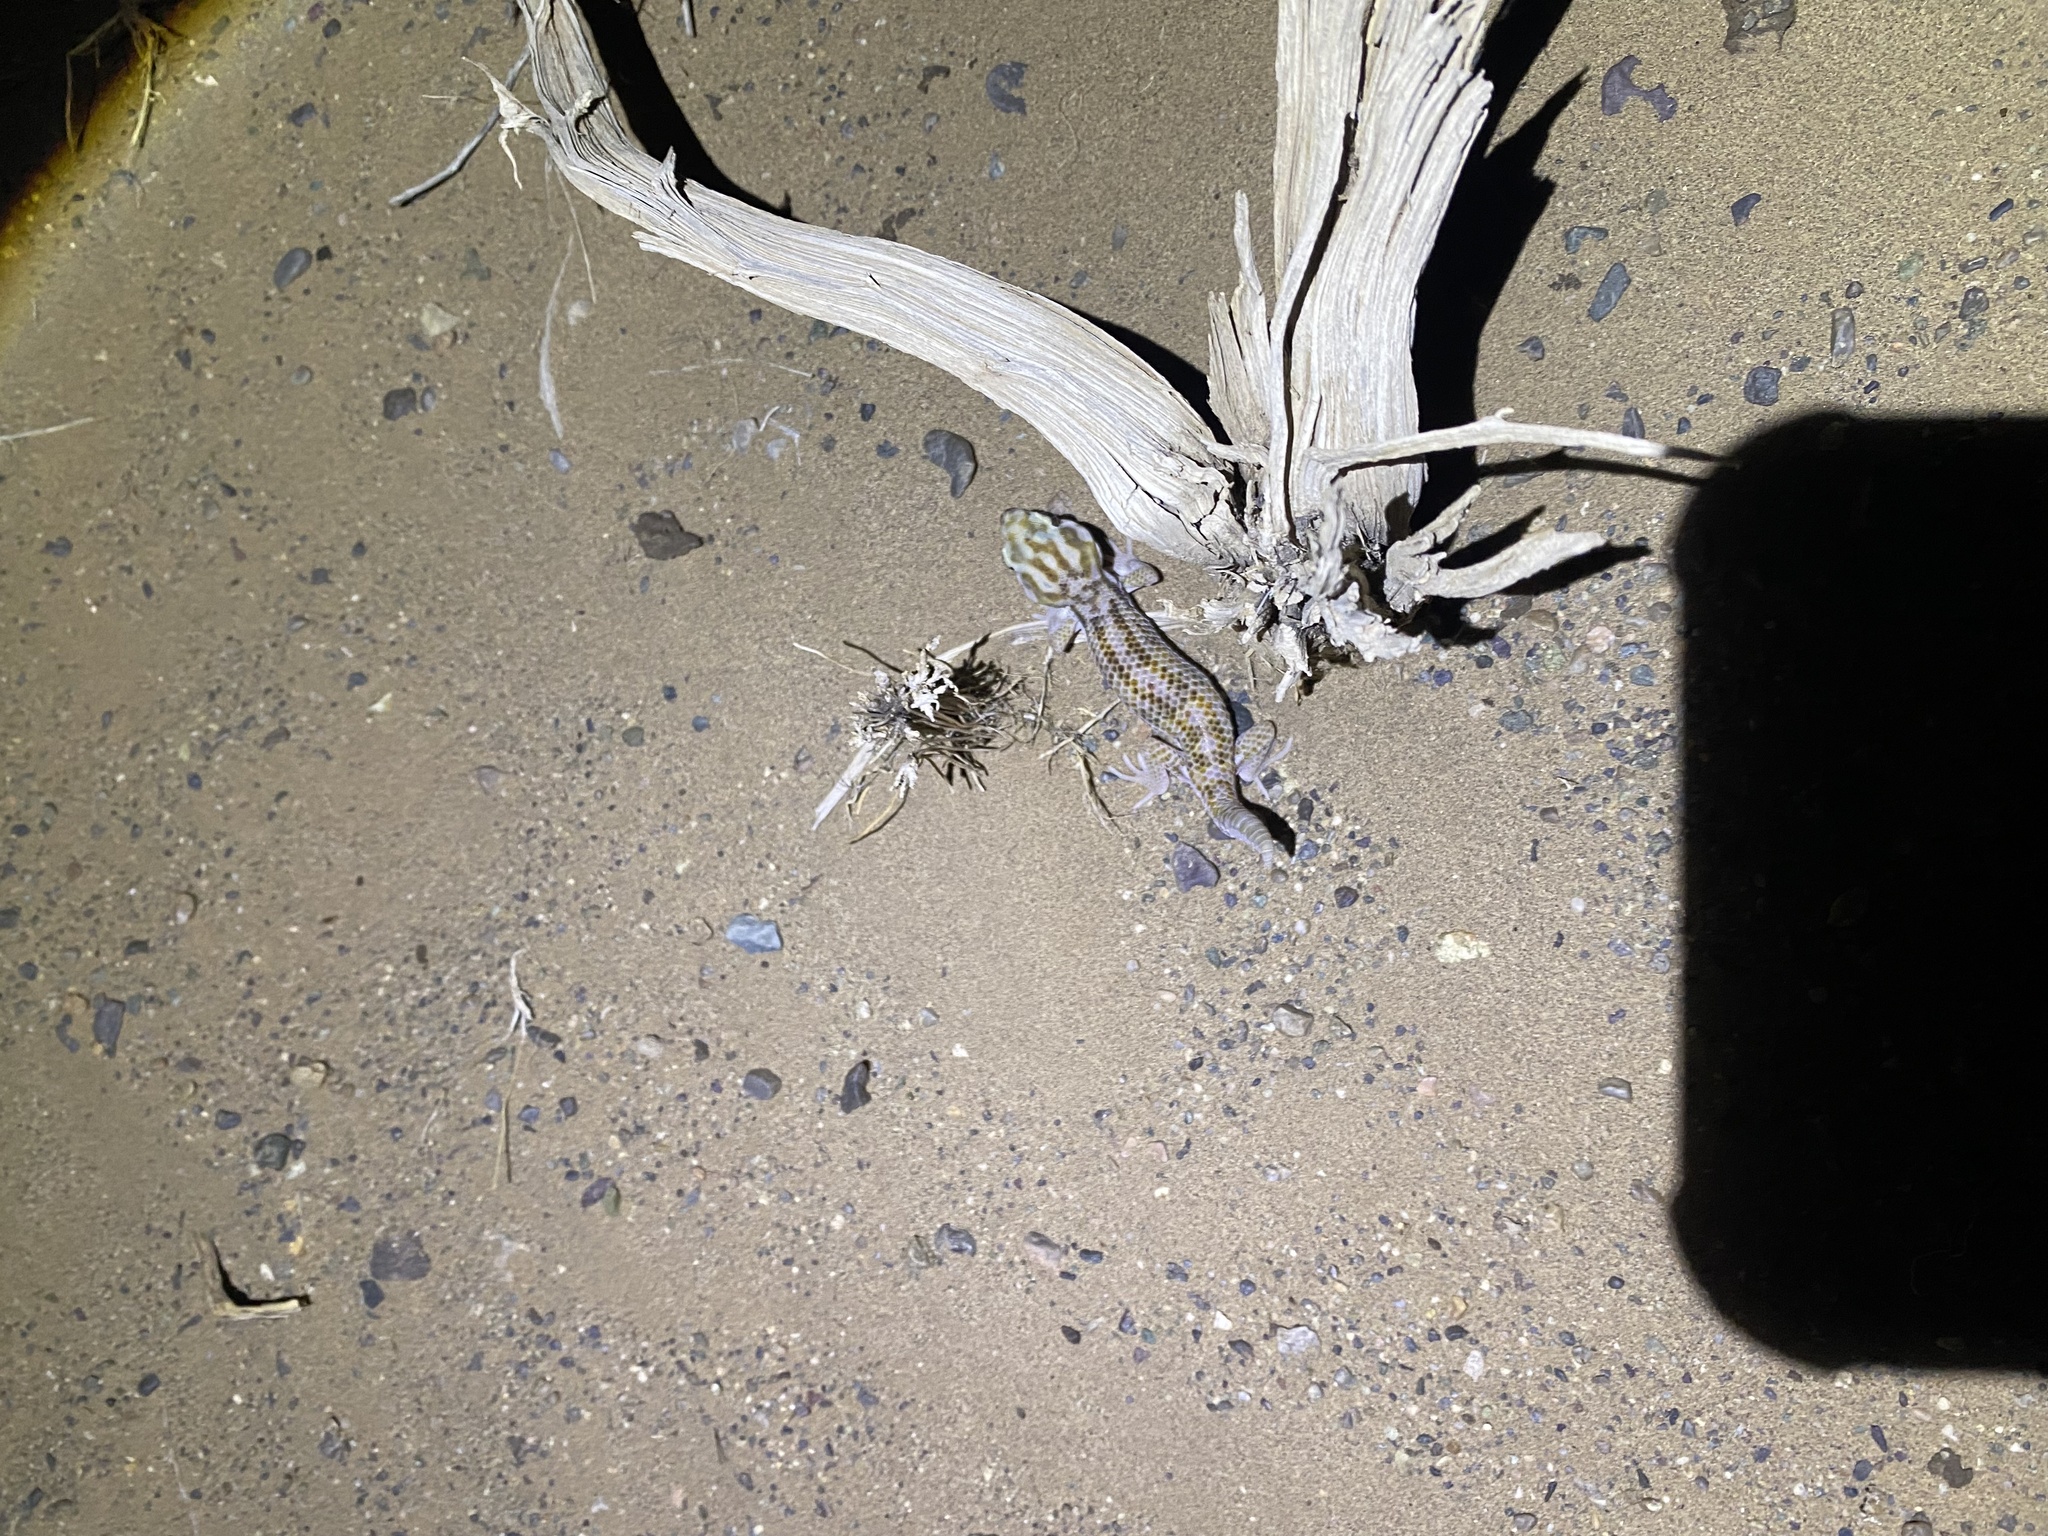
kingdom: Animalia
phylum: Chordata
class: Squamata
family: Sphaerodactylidae
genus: Teratoscincus
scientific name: Teratoscincus keyserlingii
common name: Frog-eyed gecko
